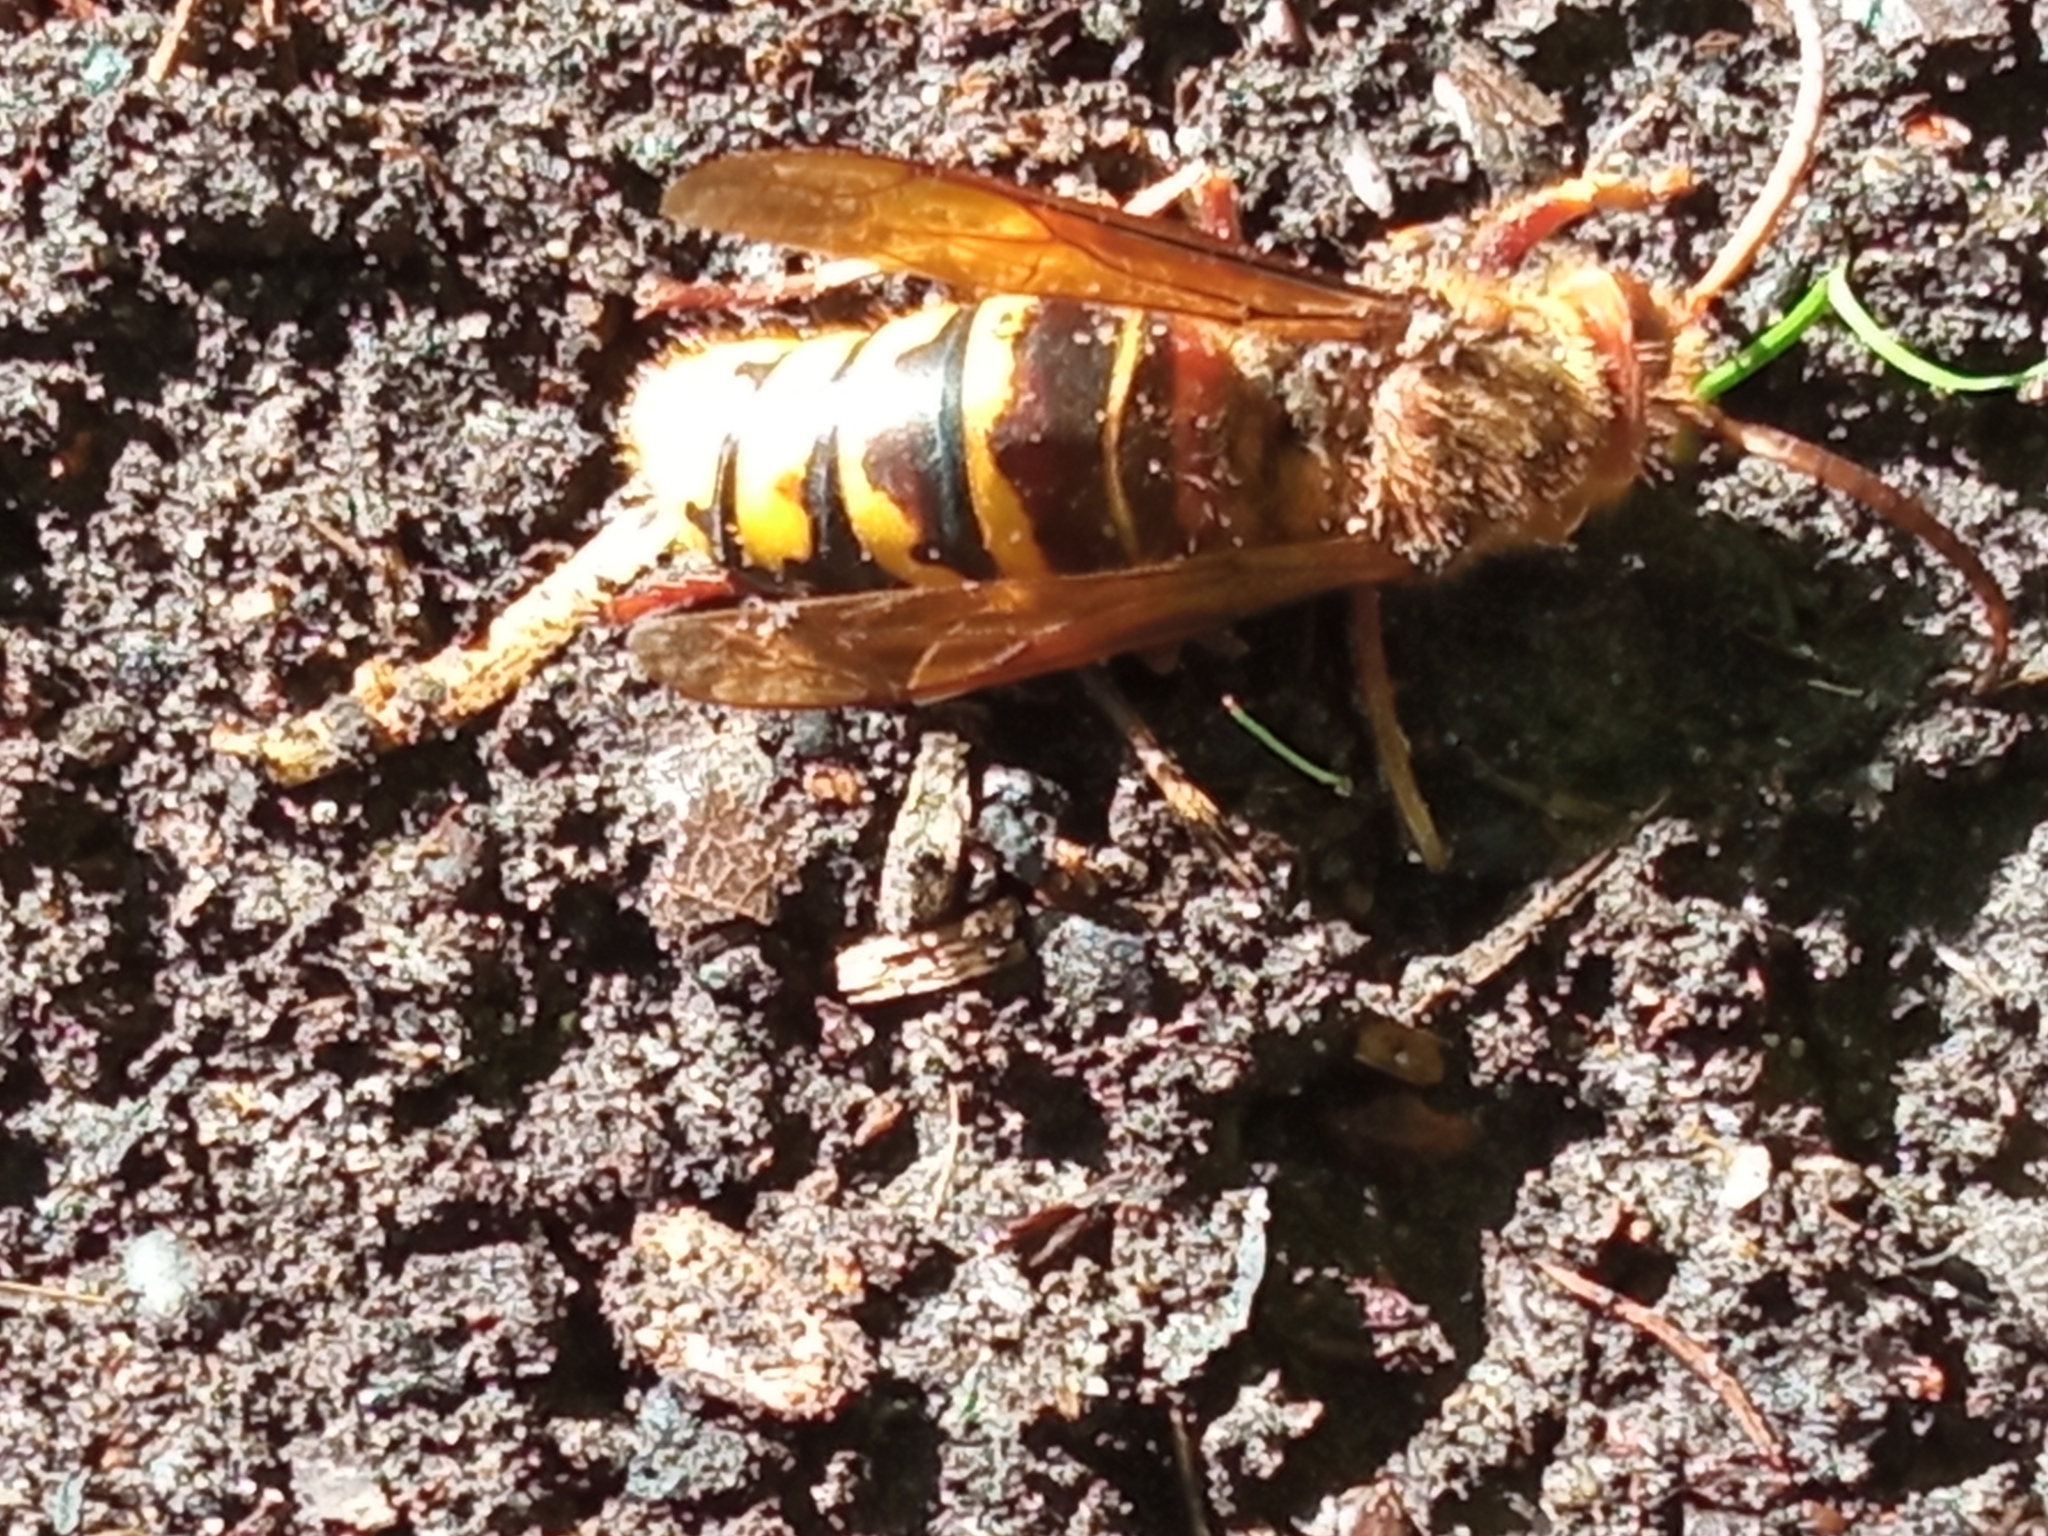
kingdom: Animalia
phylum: Arthropoda
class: Insecta
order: Hymenoptera
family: Vespidae
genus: Vespa
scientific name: Vespa crabro
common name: Hornet
